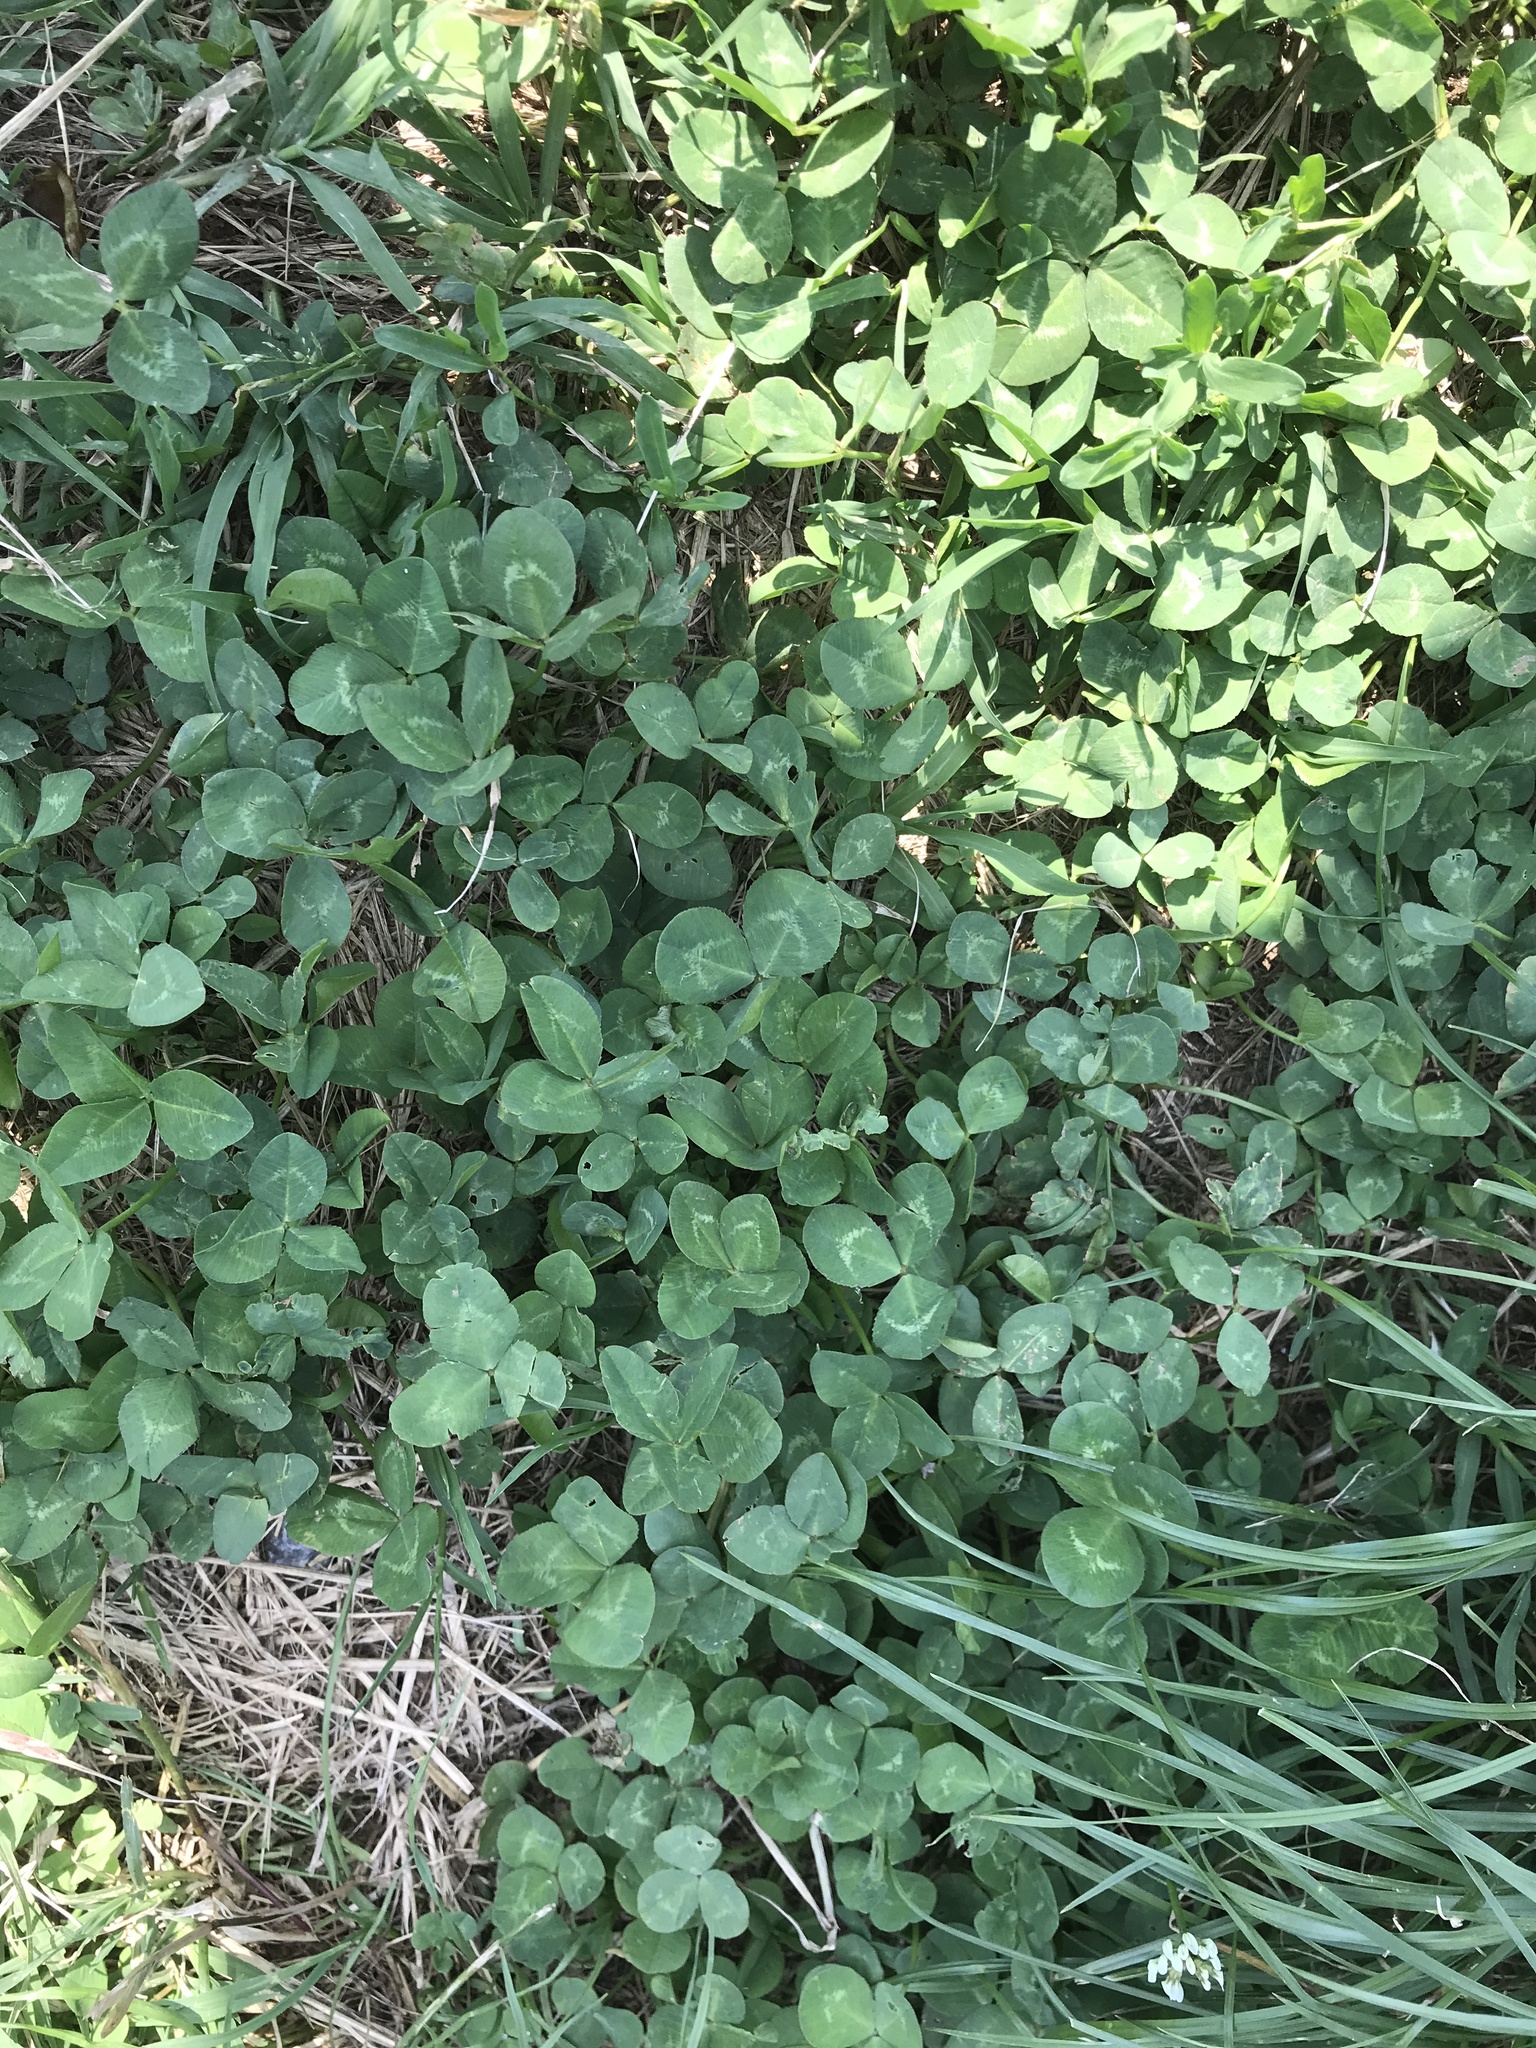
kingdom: Plantae
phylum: Tracheophyta
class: Magnoliopsida
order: Fabales
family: Fabaceae
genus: Trifolium
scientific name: Trifolium repens
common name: White clover
